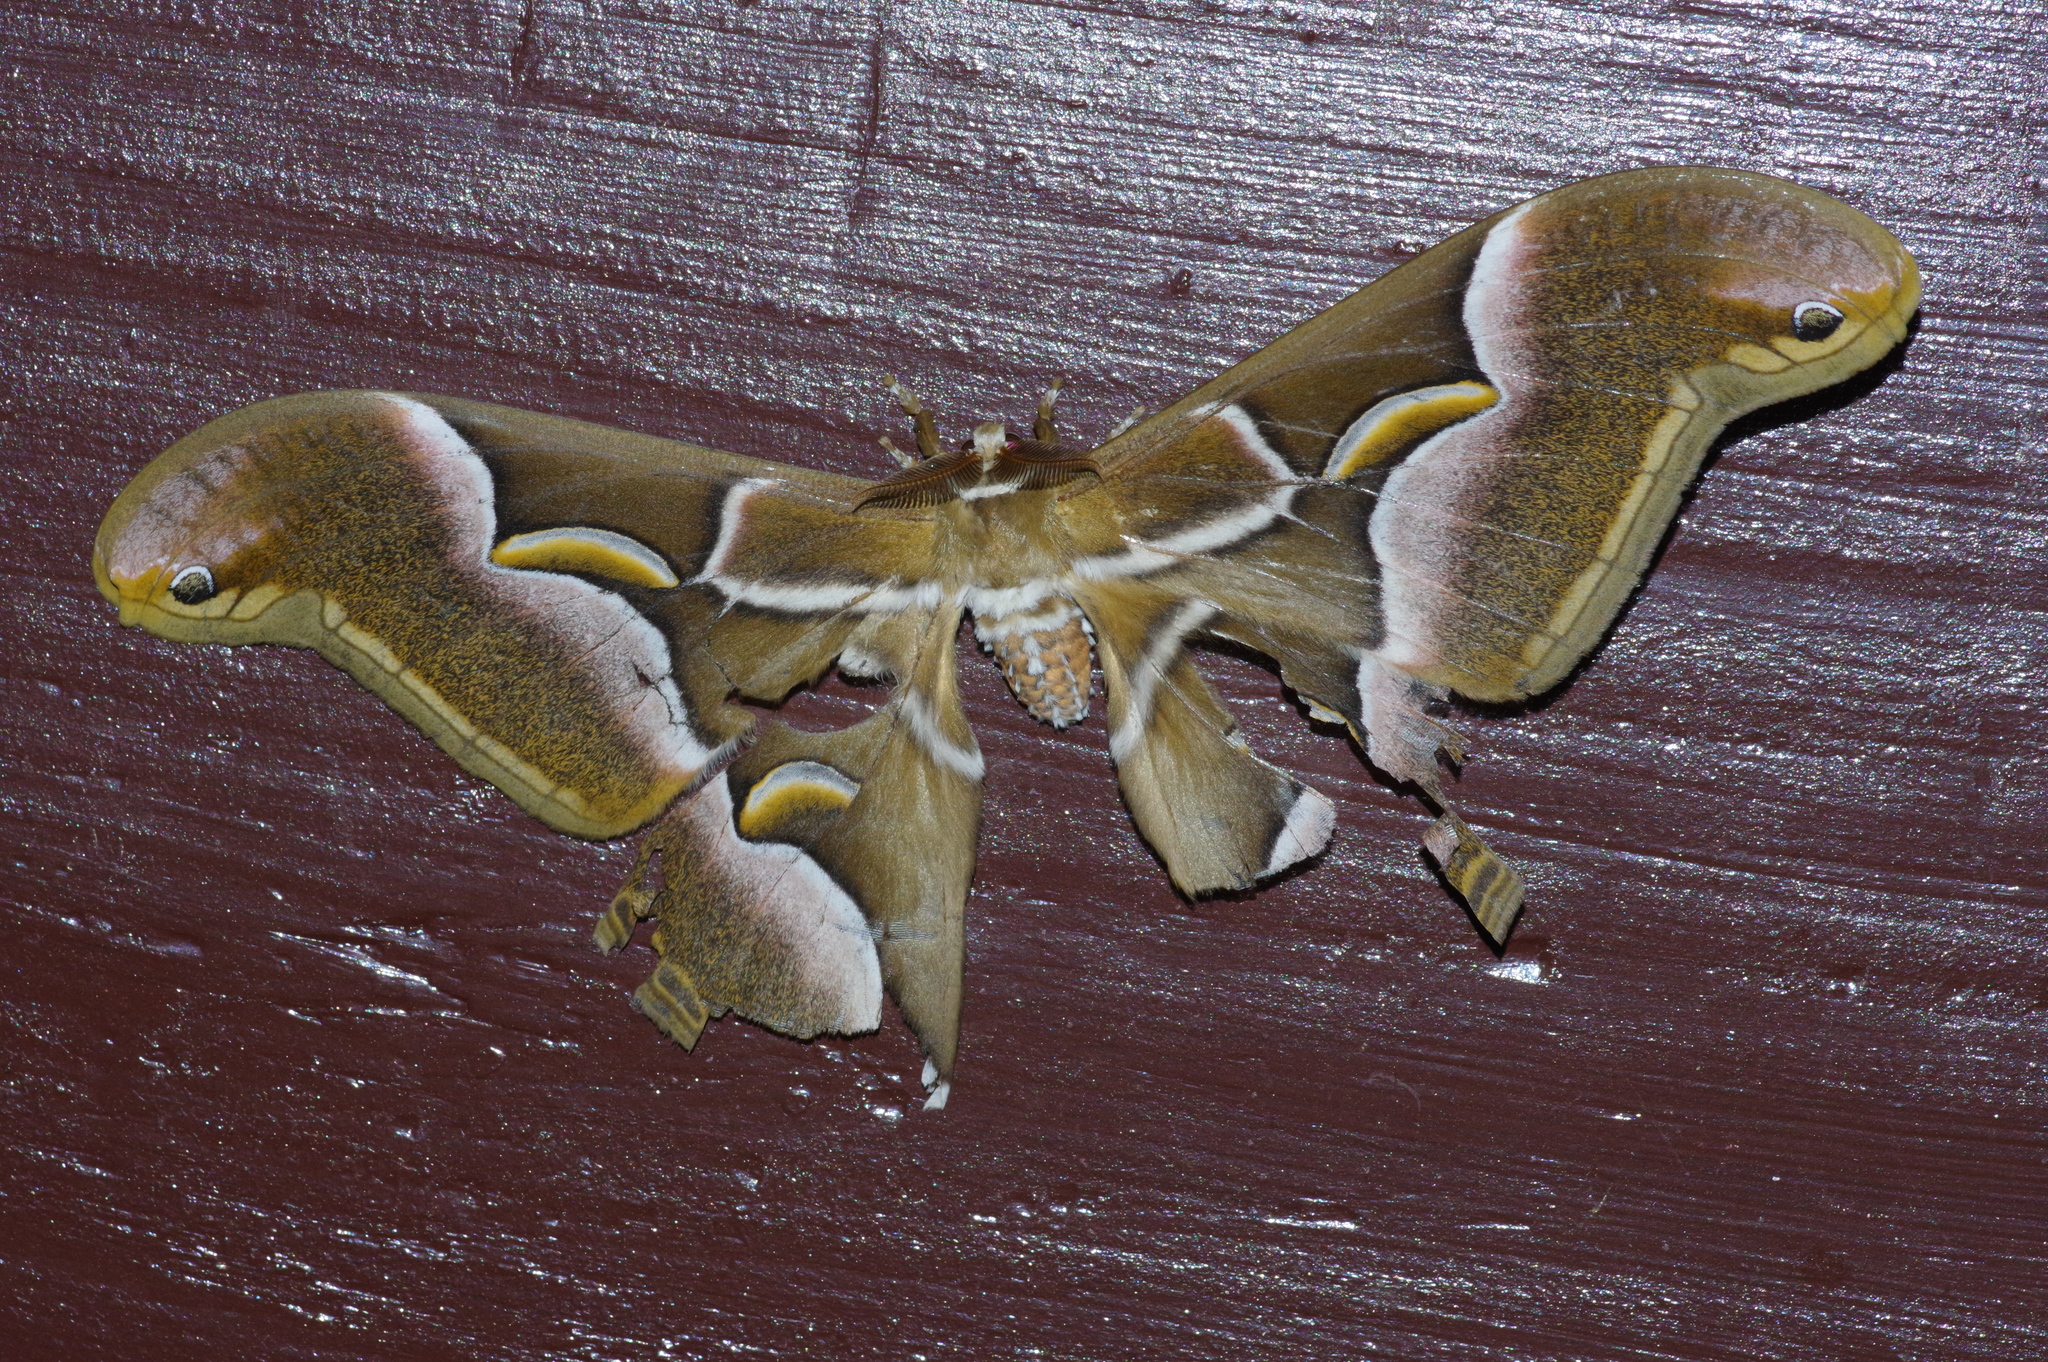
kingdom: Animalia
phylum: Arthropoda
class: Insecta
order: Lepidoptera
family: Saturniidae
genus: Samia
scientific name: Samia cynthia
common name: Ailanthus silkmoth
